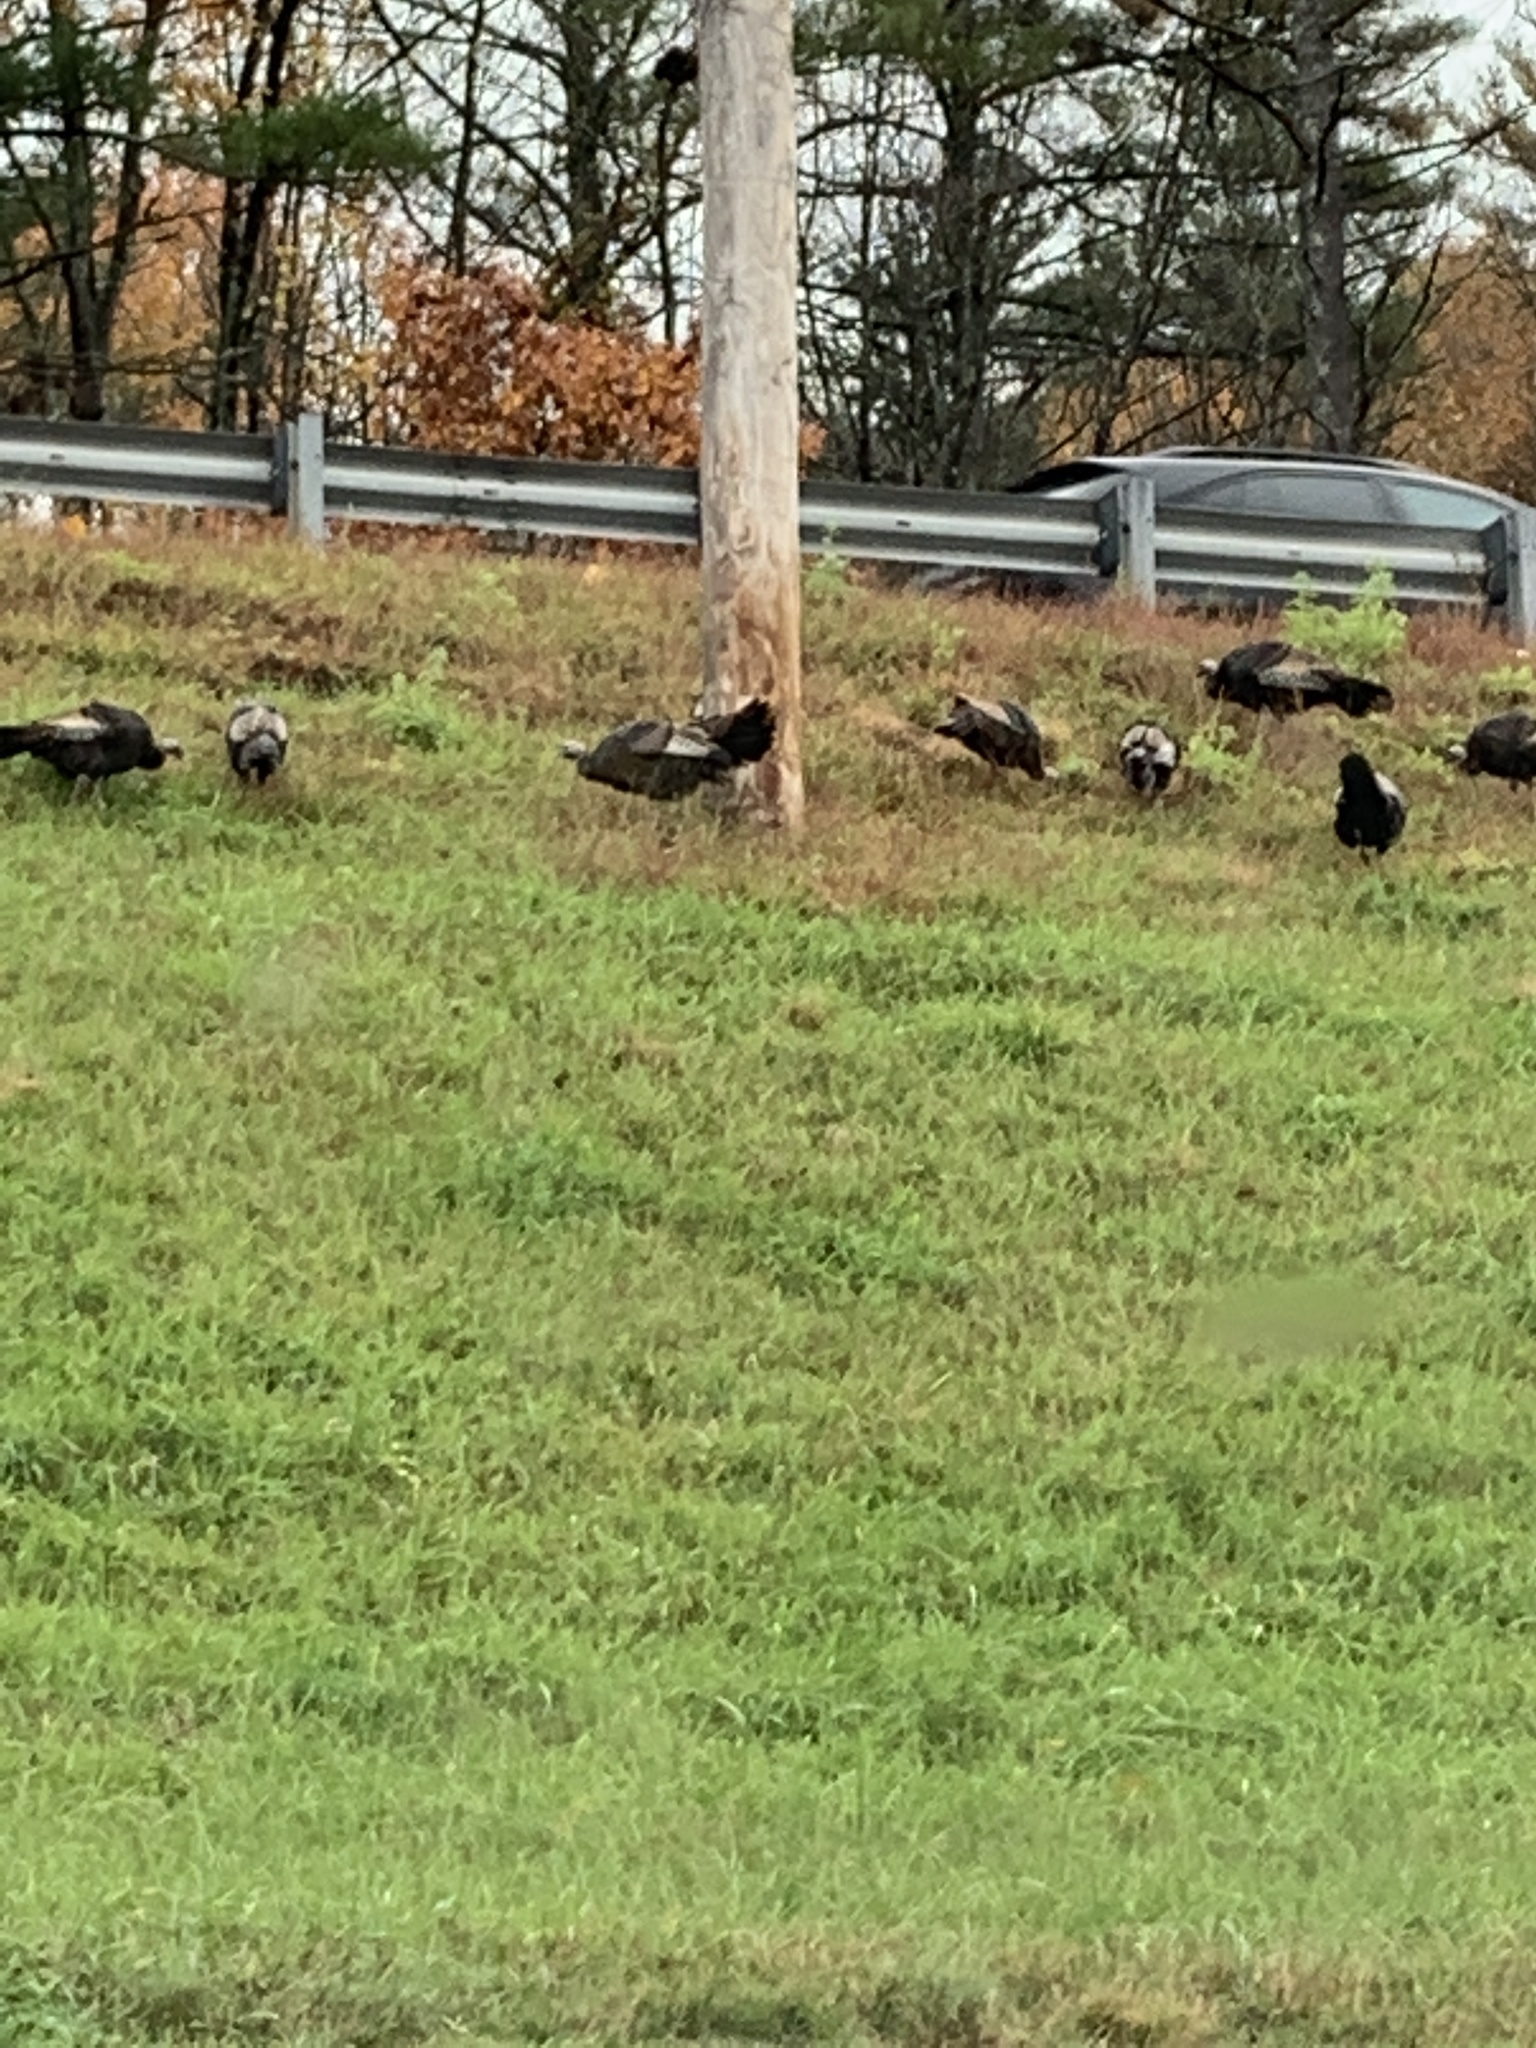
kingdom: Animalia
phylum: Chordata
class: Aves
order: Galliformes
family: Phasianidae
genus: Meleagris
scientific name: Meleagris gallopavo
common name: Wild turkey
